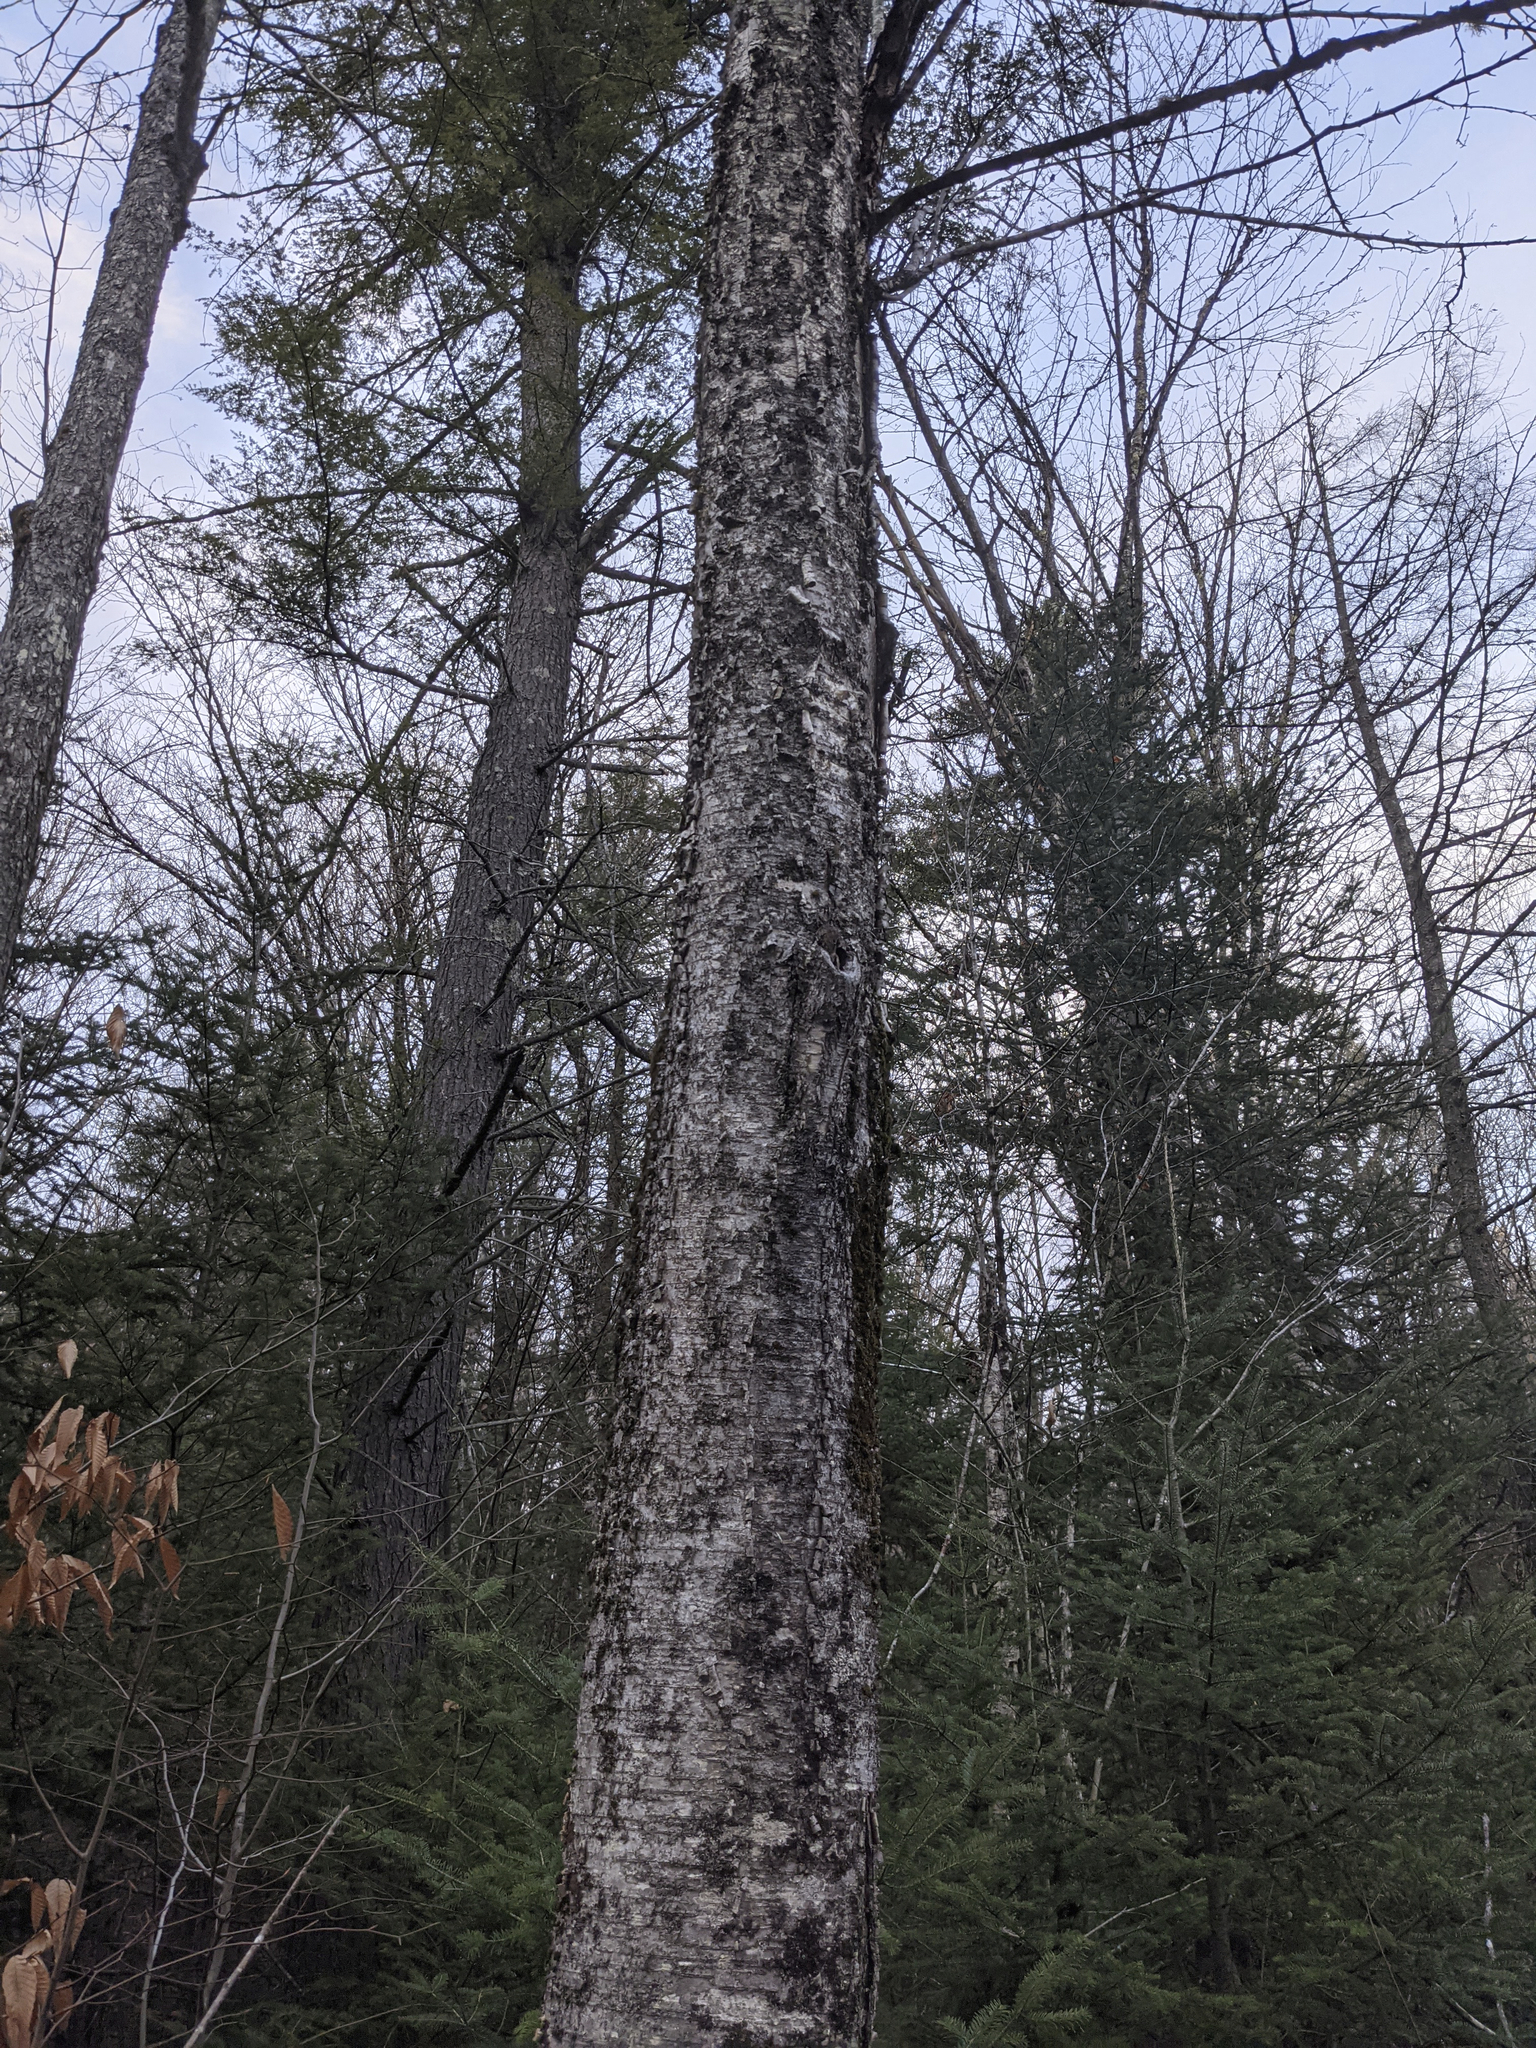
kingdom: Plantae
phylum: Tracheophyta
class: Magnoliopsida
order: Fagales
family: Betulaceae
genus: Betula
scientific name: Betula alleghaniensis
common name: Yellow birch
